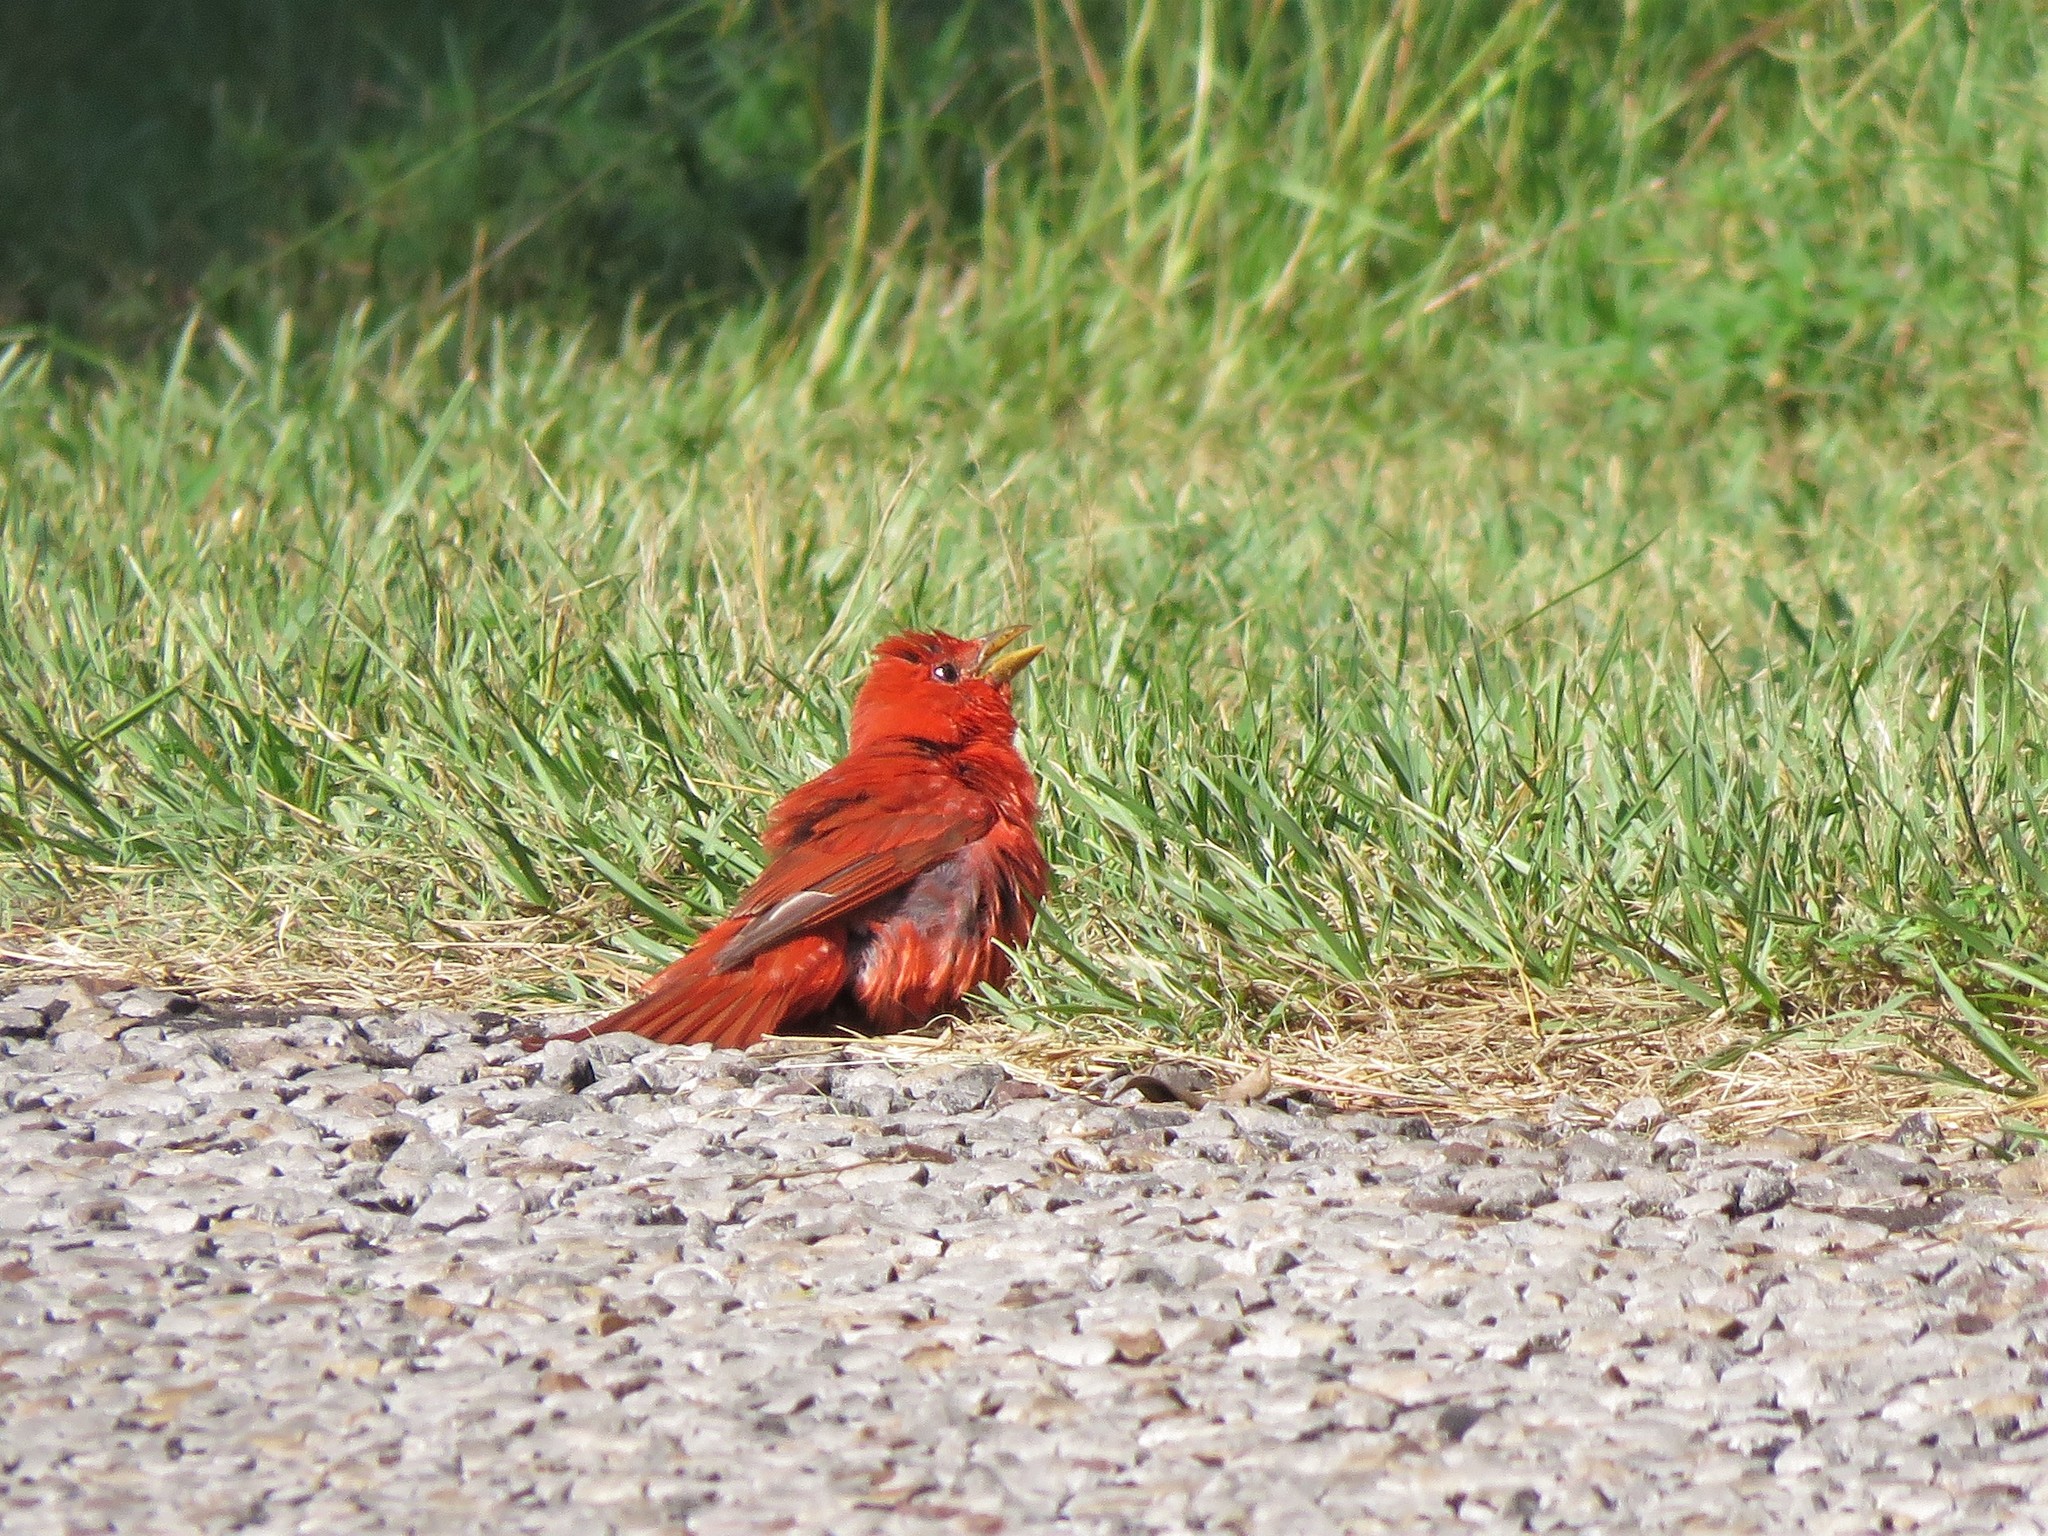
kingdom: Animalia
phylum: Chordata
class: Aves
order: Passeriformes
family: Cardinalidae
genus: Piranga
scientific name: Piranga rubra
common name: Summer tanager
